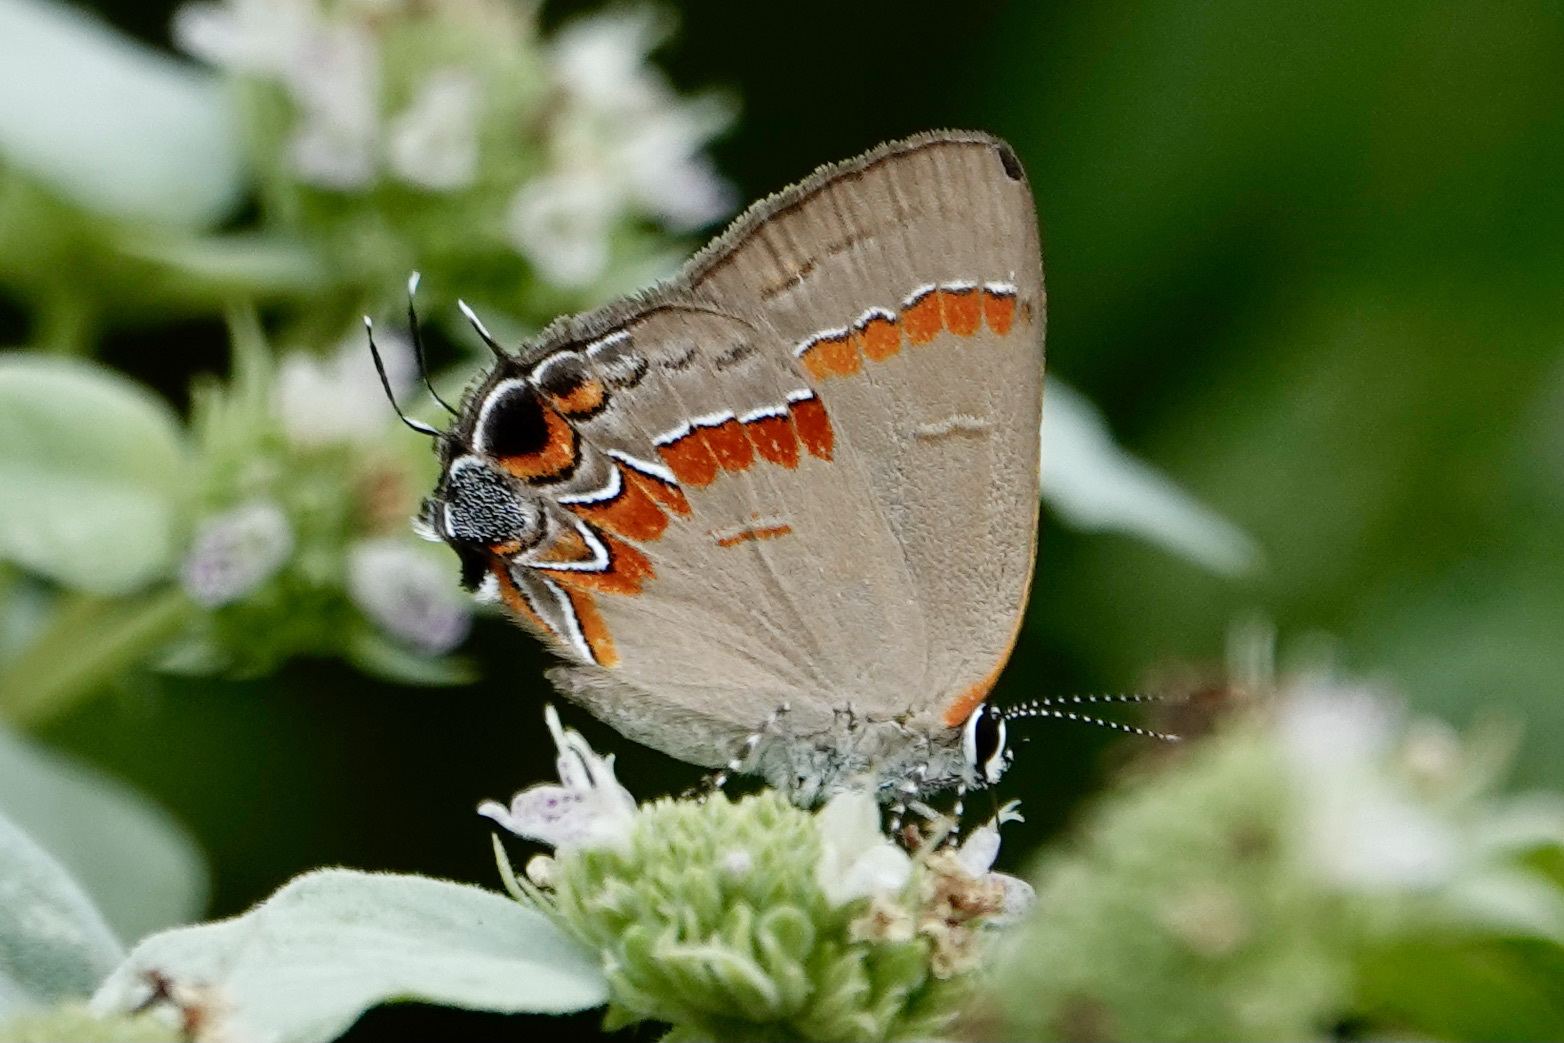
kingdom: Animalia
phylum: Arthropoda
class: Insecta
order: Lepidoptera
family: Lycaenidae
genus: Calycopis
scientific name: Calycopis cecrops
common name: Red-banded hairstreak
